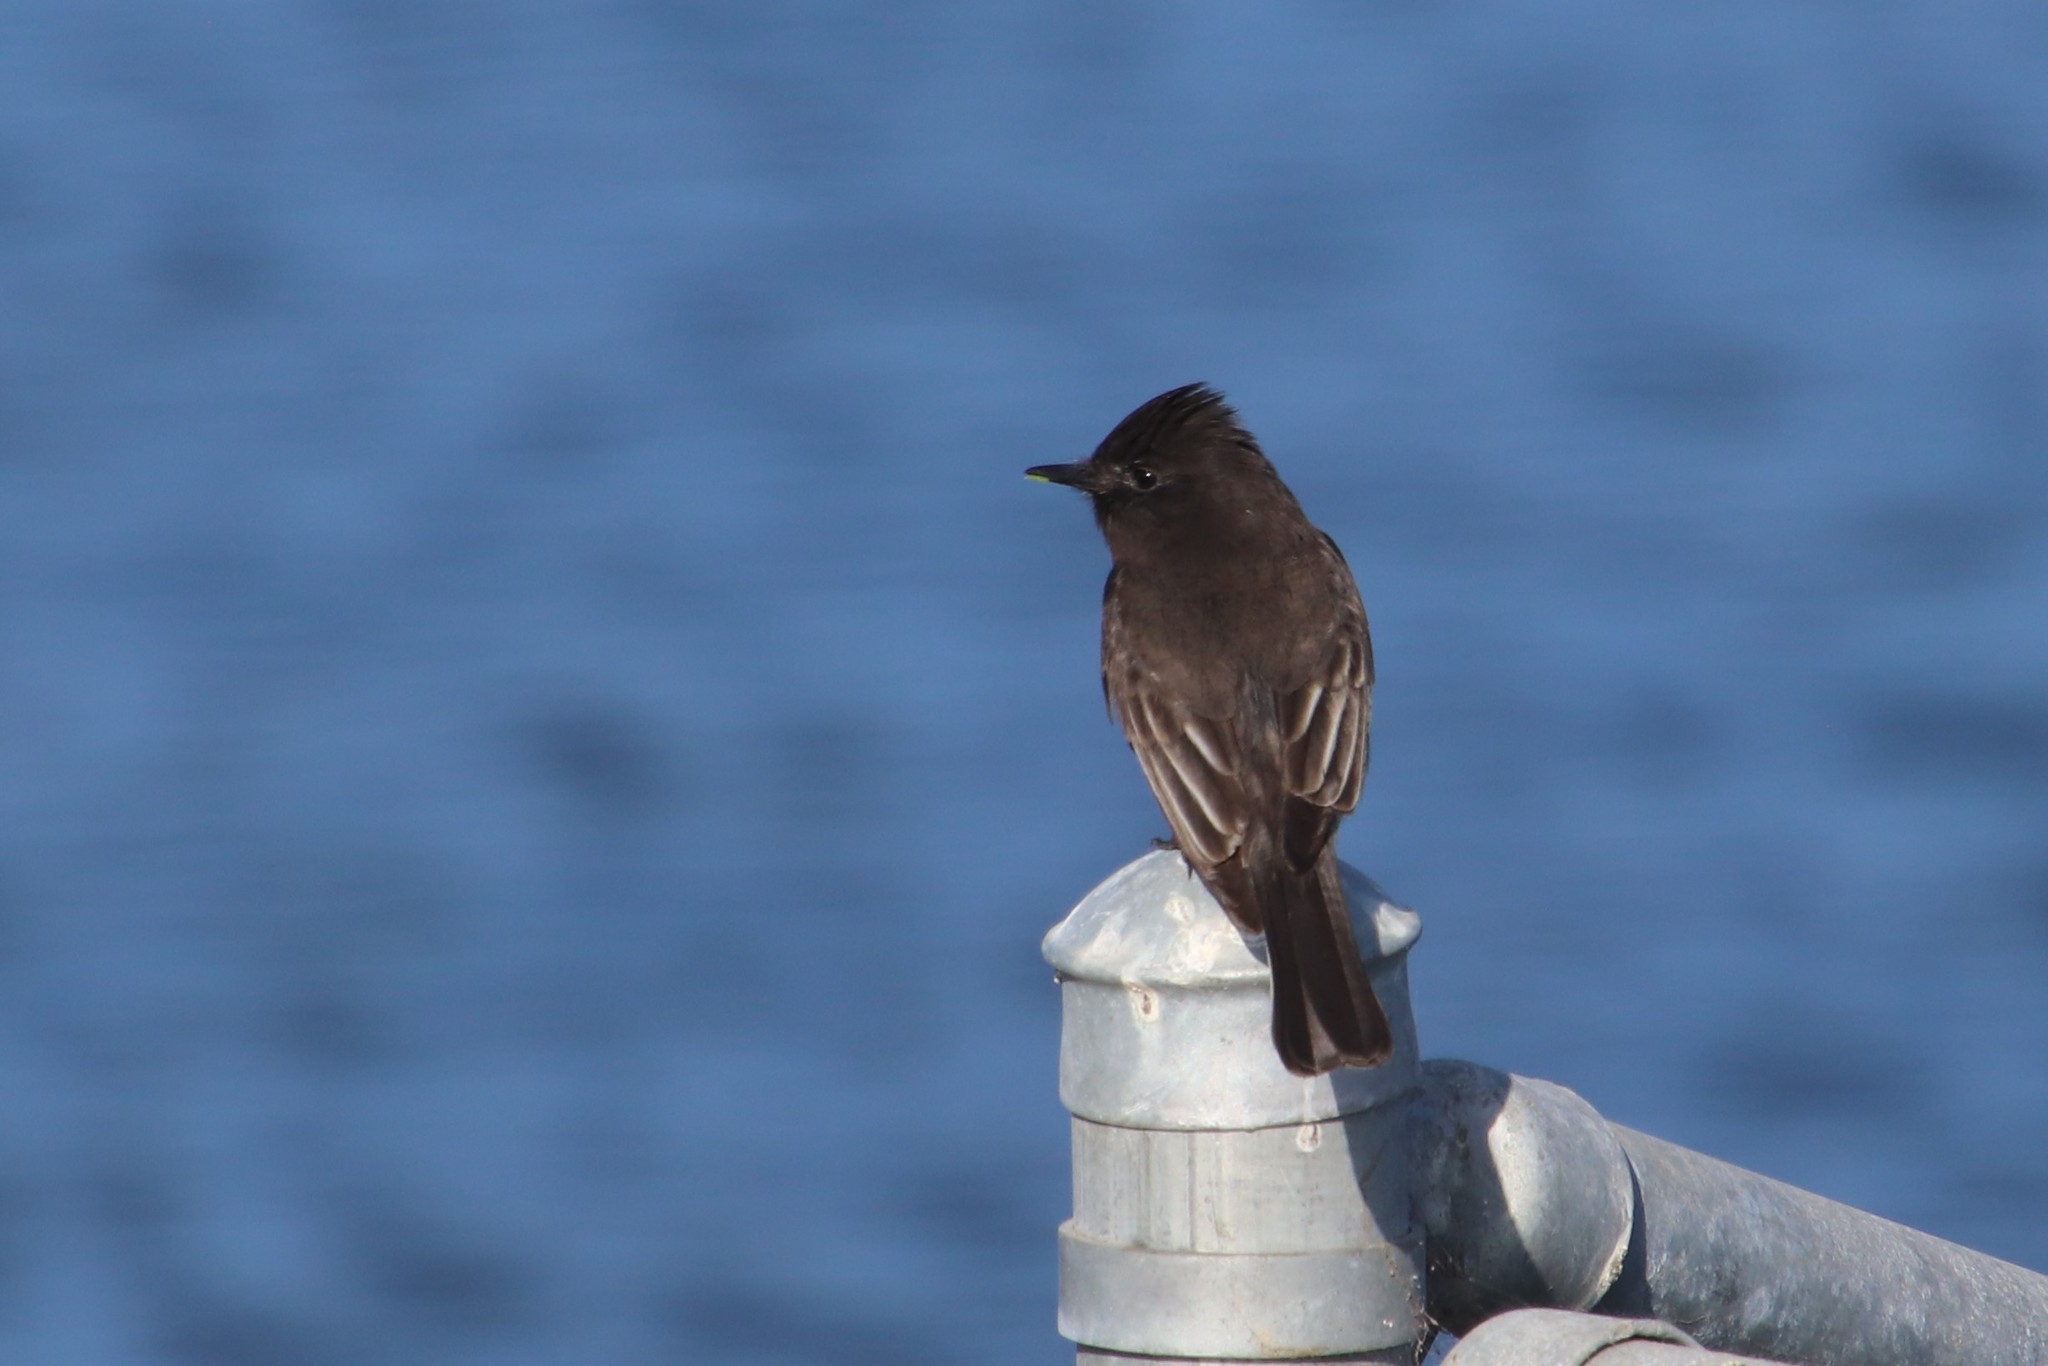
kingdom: Animalia
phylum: Chordata
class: Aves
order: Passeriformes
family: Tyrannidae
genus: Sayornis
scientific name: Sayornis nigricans
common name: Black phoebe
